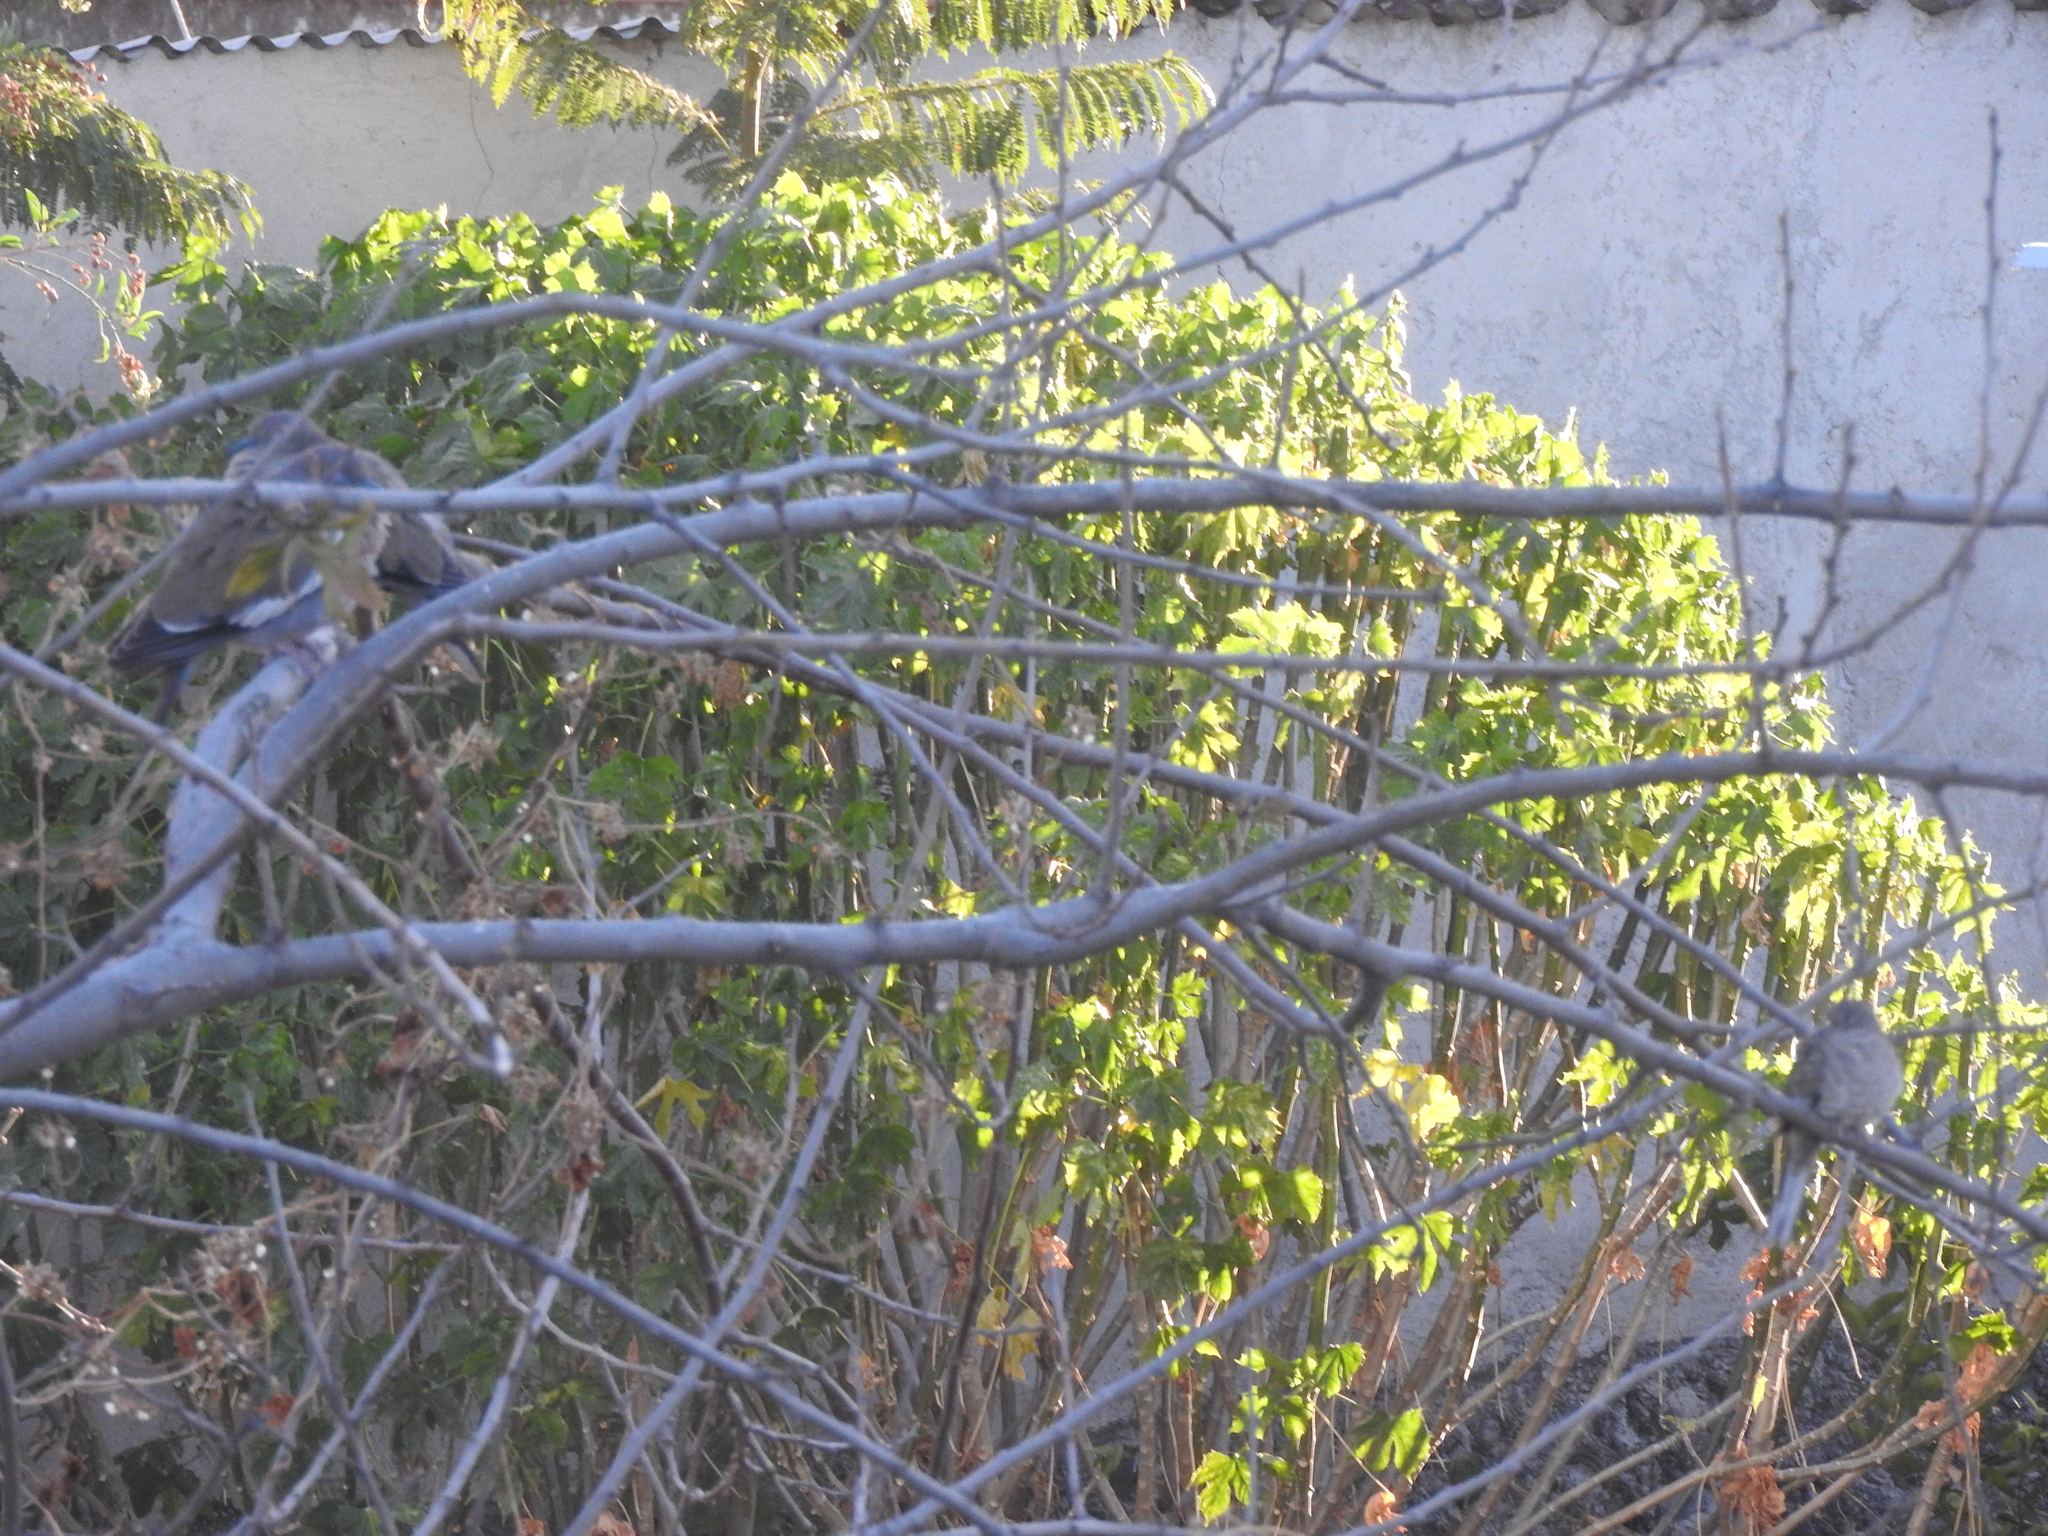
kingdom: Animalia
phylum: Chordata
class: Aves
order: Columbiformes
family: Columbidae
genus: Zenaida
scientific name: Zenaida asiatica
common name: White-winged dove
